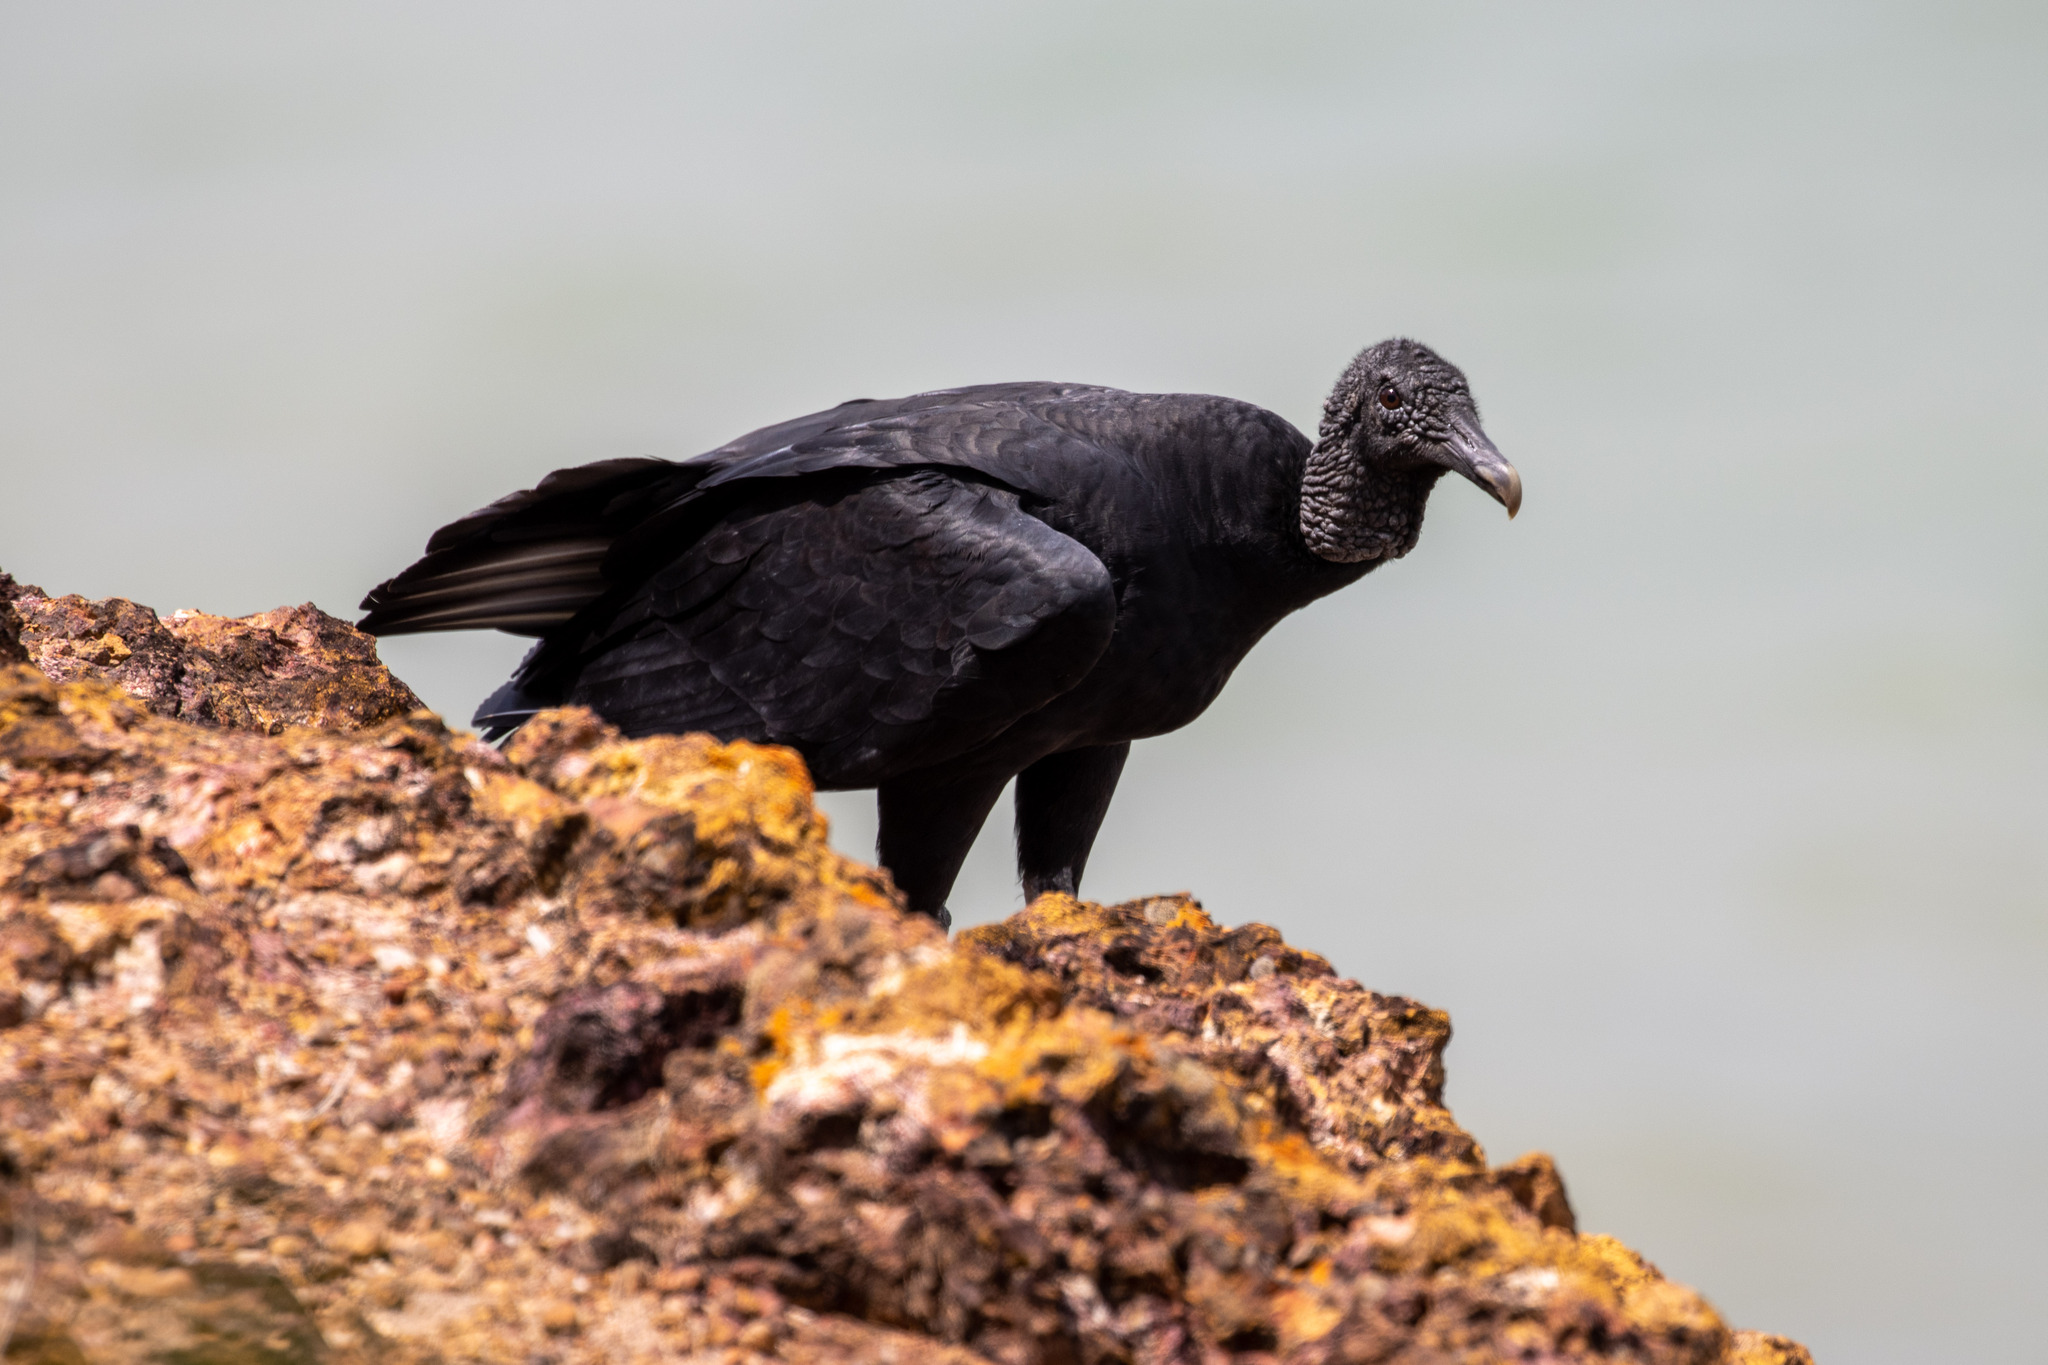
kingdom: Animalia
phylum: Chordata
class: Aves
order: Accipitriformes
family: Cathartidae
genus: Coragyps
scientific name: Coragyps atratus
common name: Black vulture
